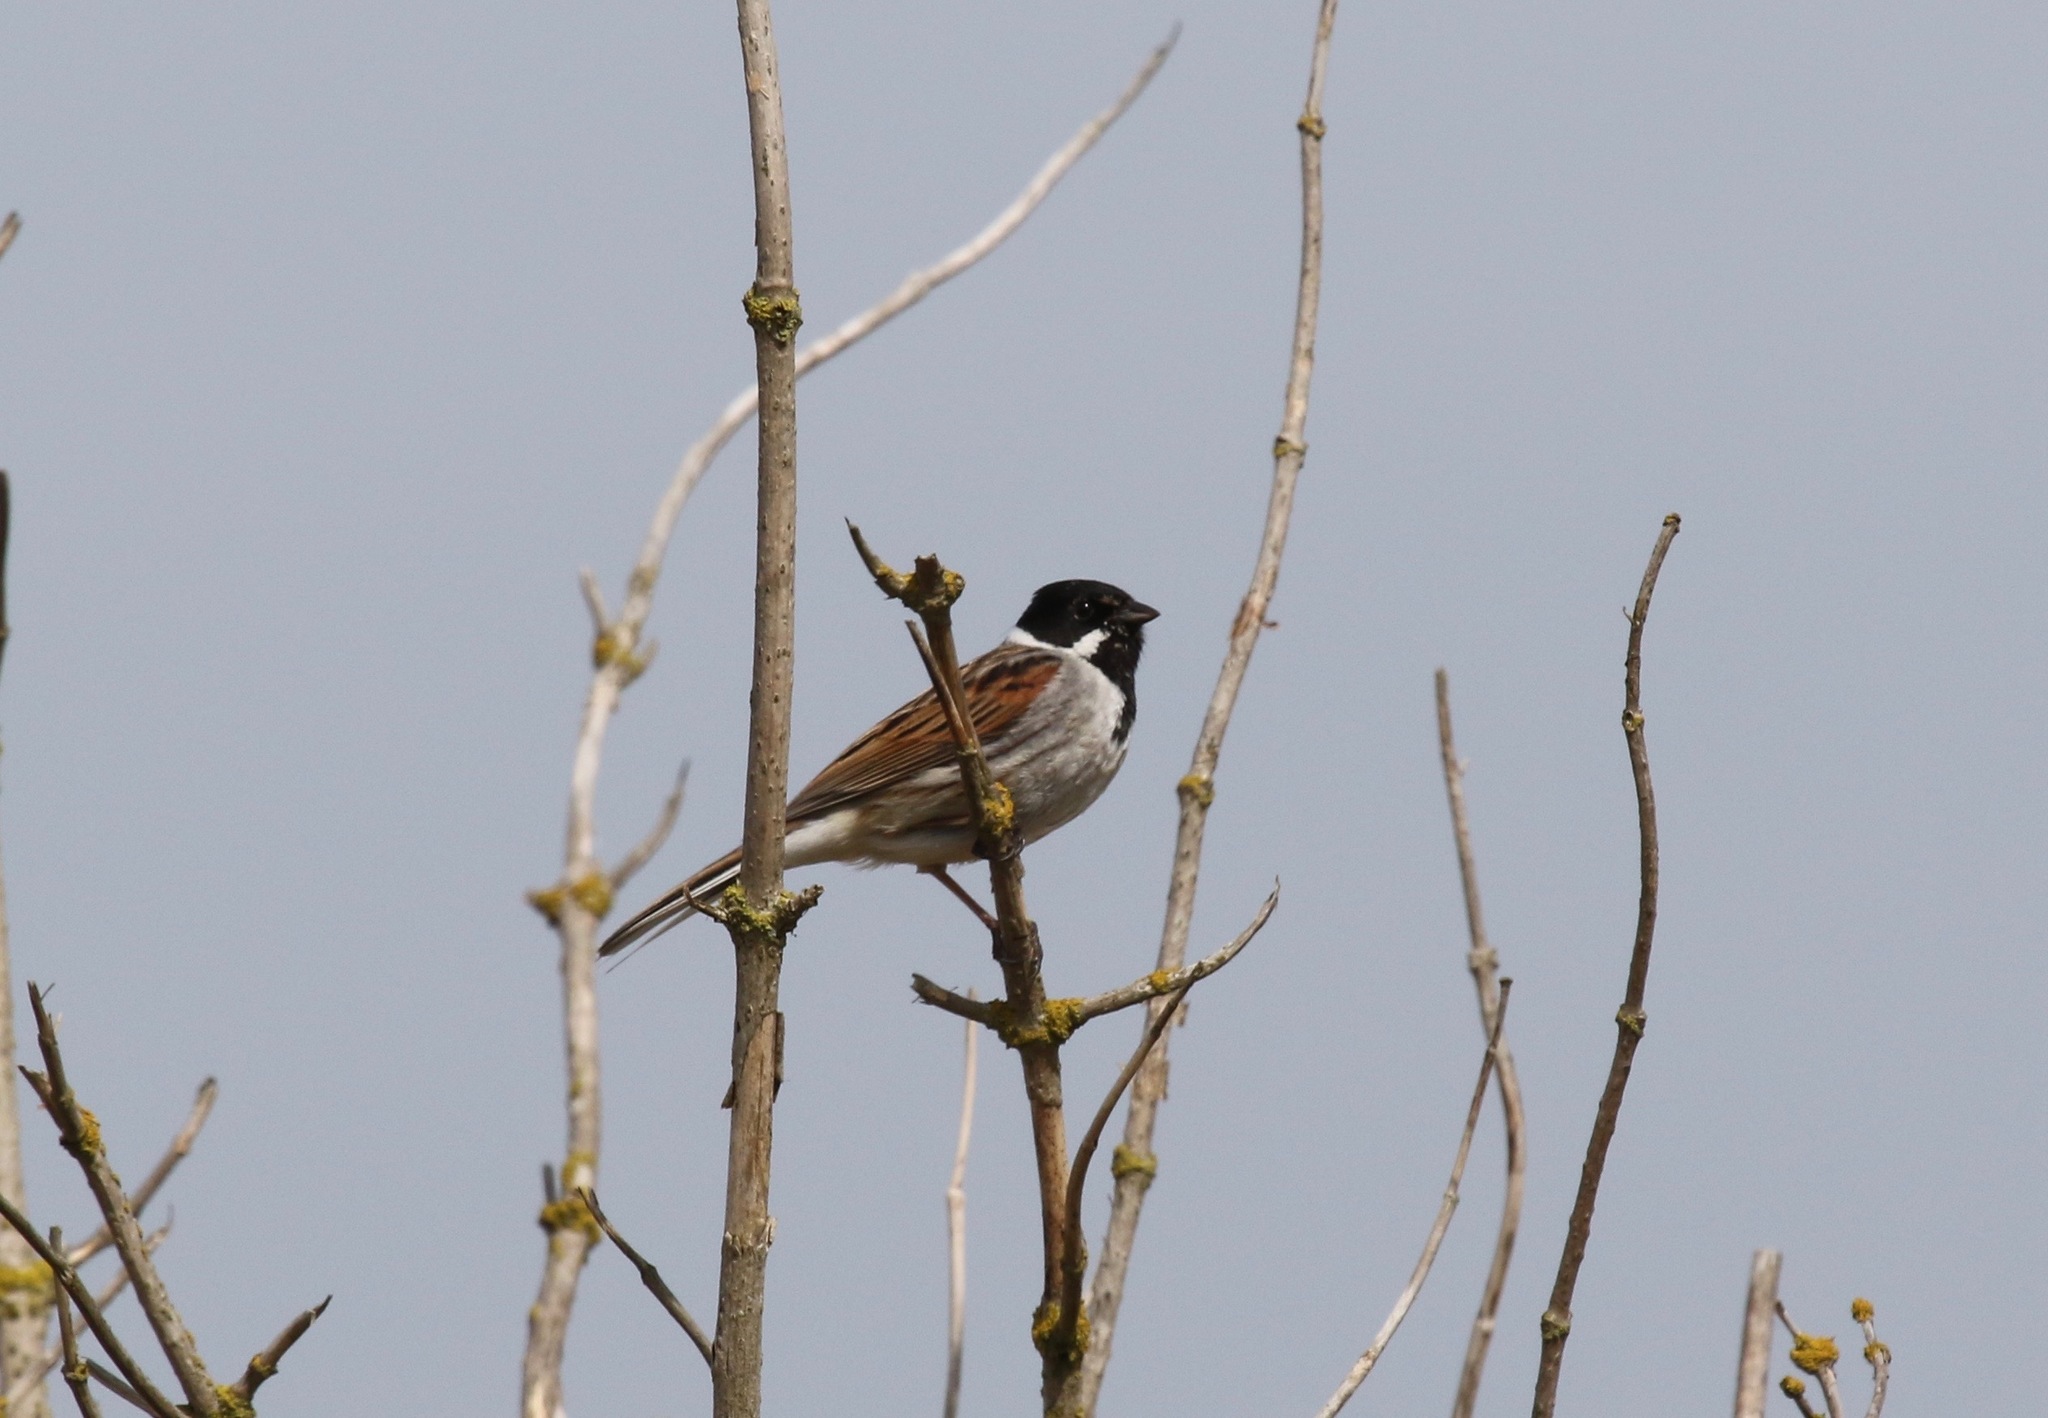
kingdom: Animalia
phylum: Chordata
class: Aves
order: Passeriformes
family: Emberizidae
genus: Emberiza
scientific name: Emberiza schoeniclus
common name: Reed bunting
